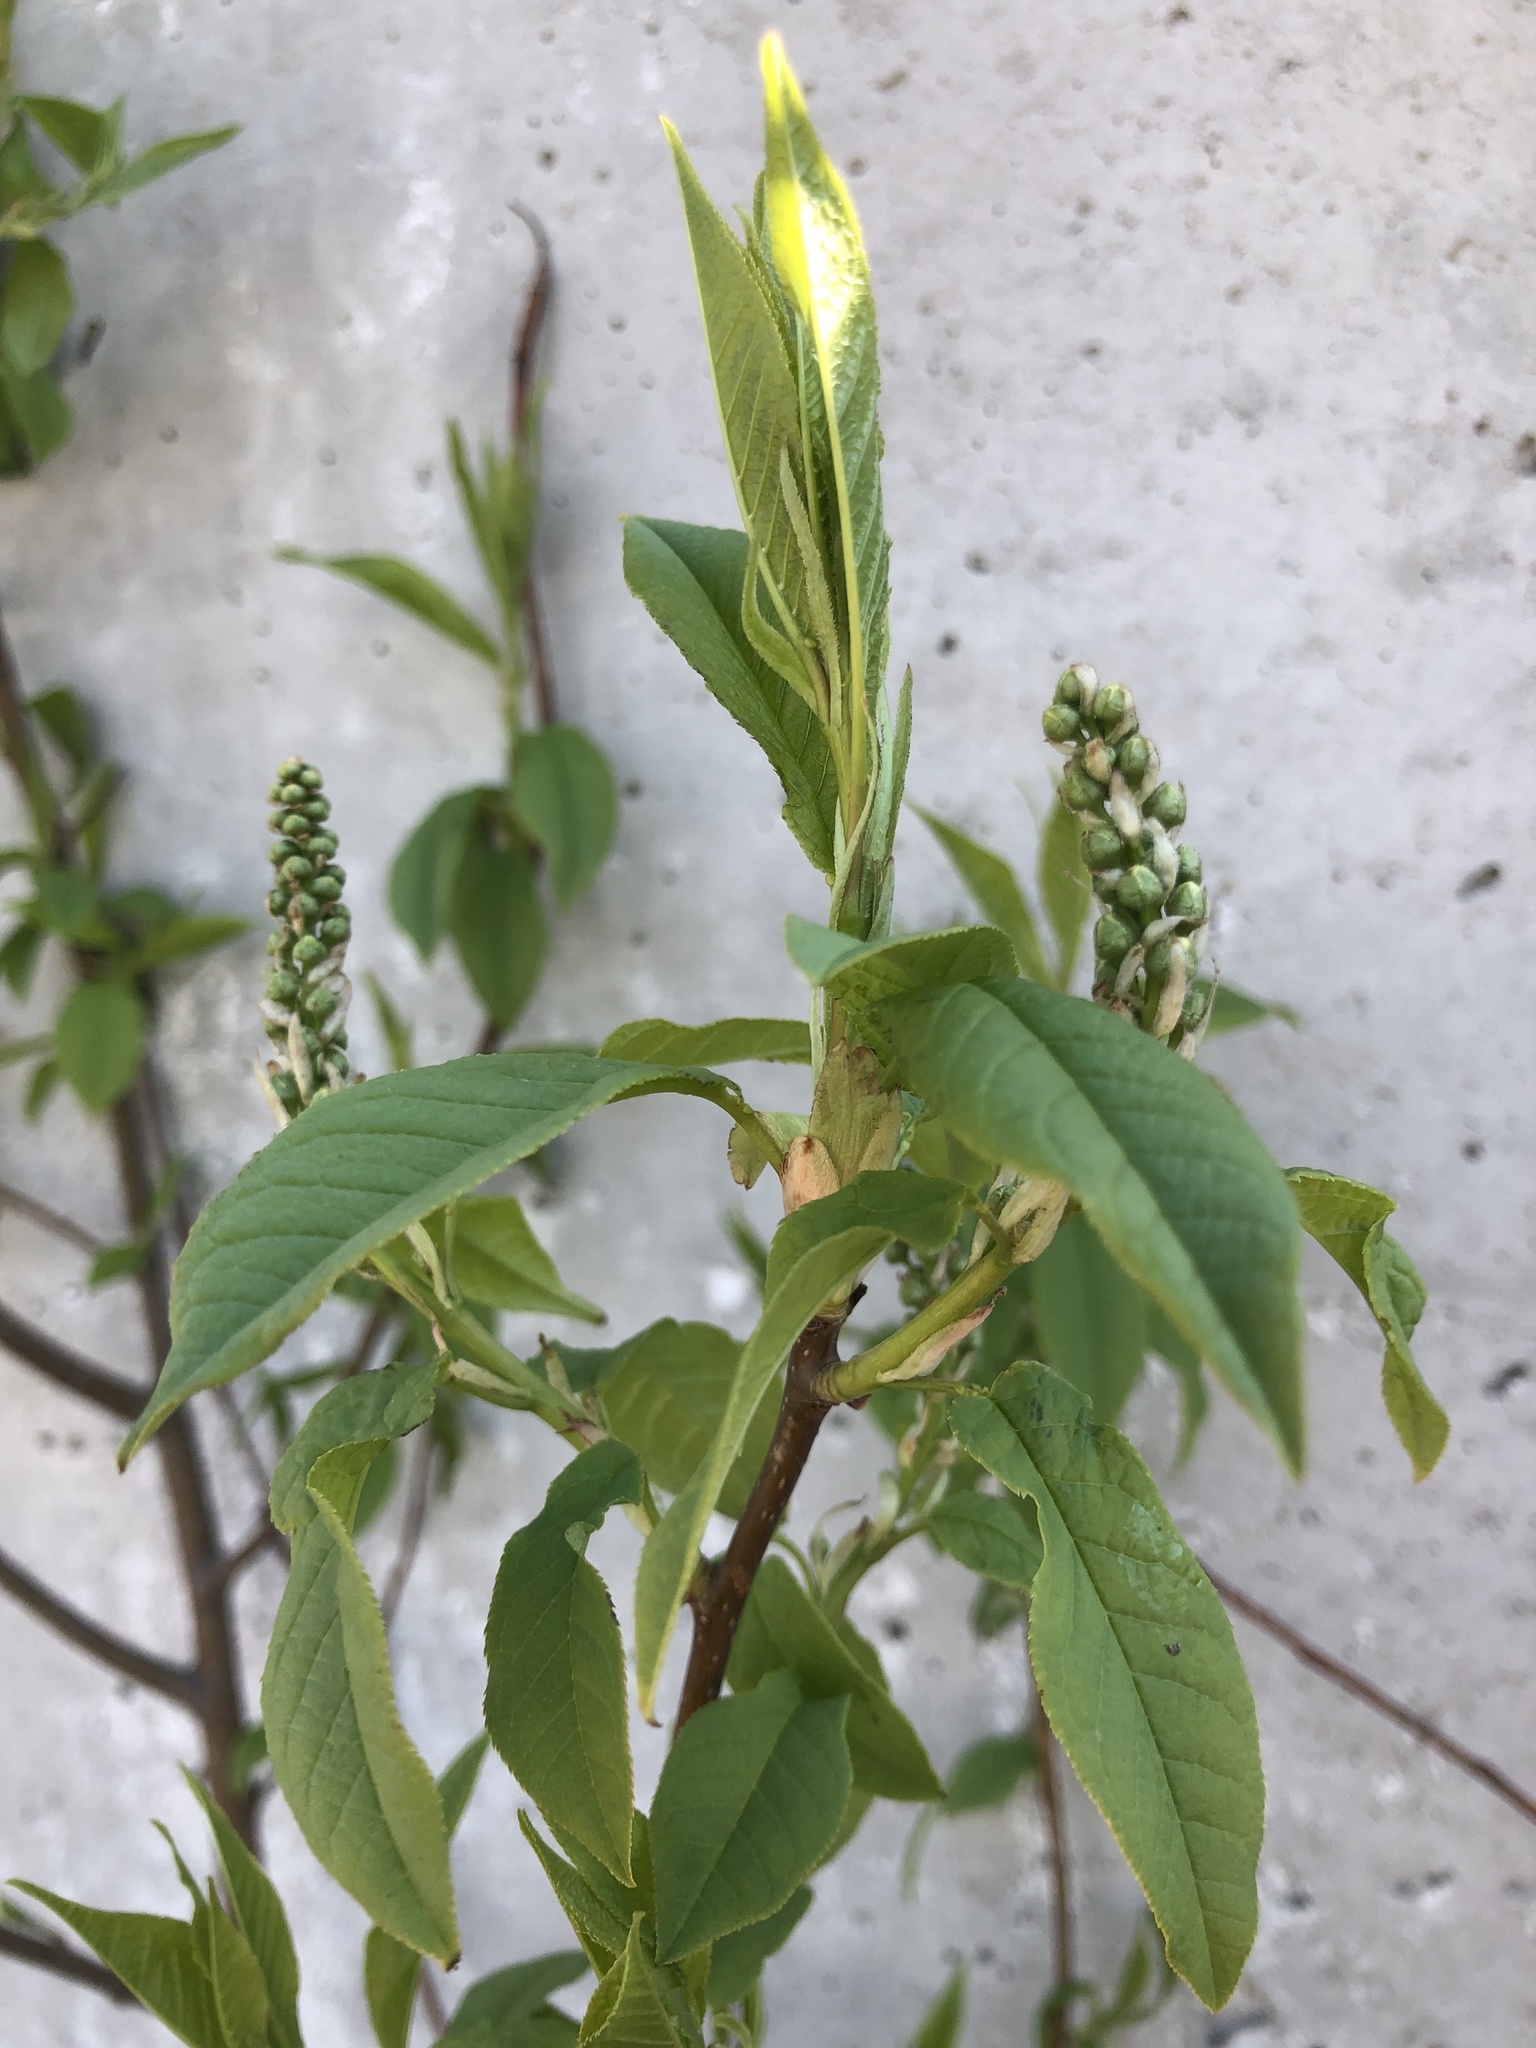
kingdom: Plantae
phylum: Tracheophyta
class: Magnoliopsida
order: Rosales
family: Rosaceae
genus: Prunus
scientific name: Prunus padus
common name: Bird cherry
